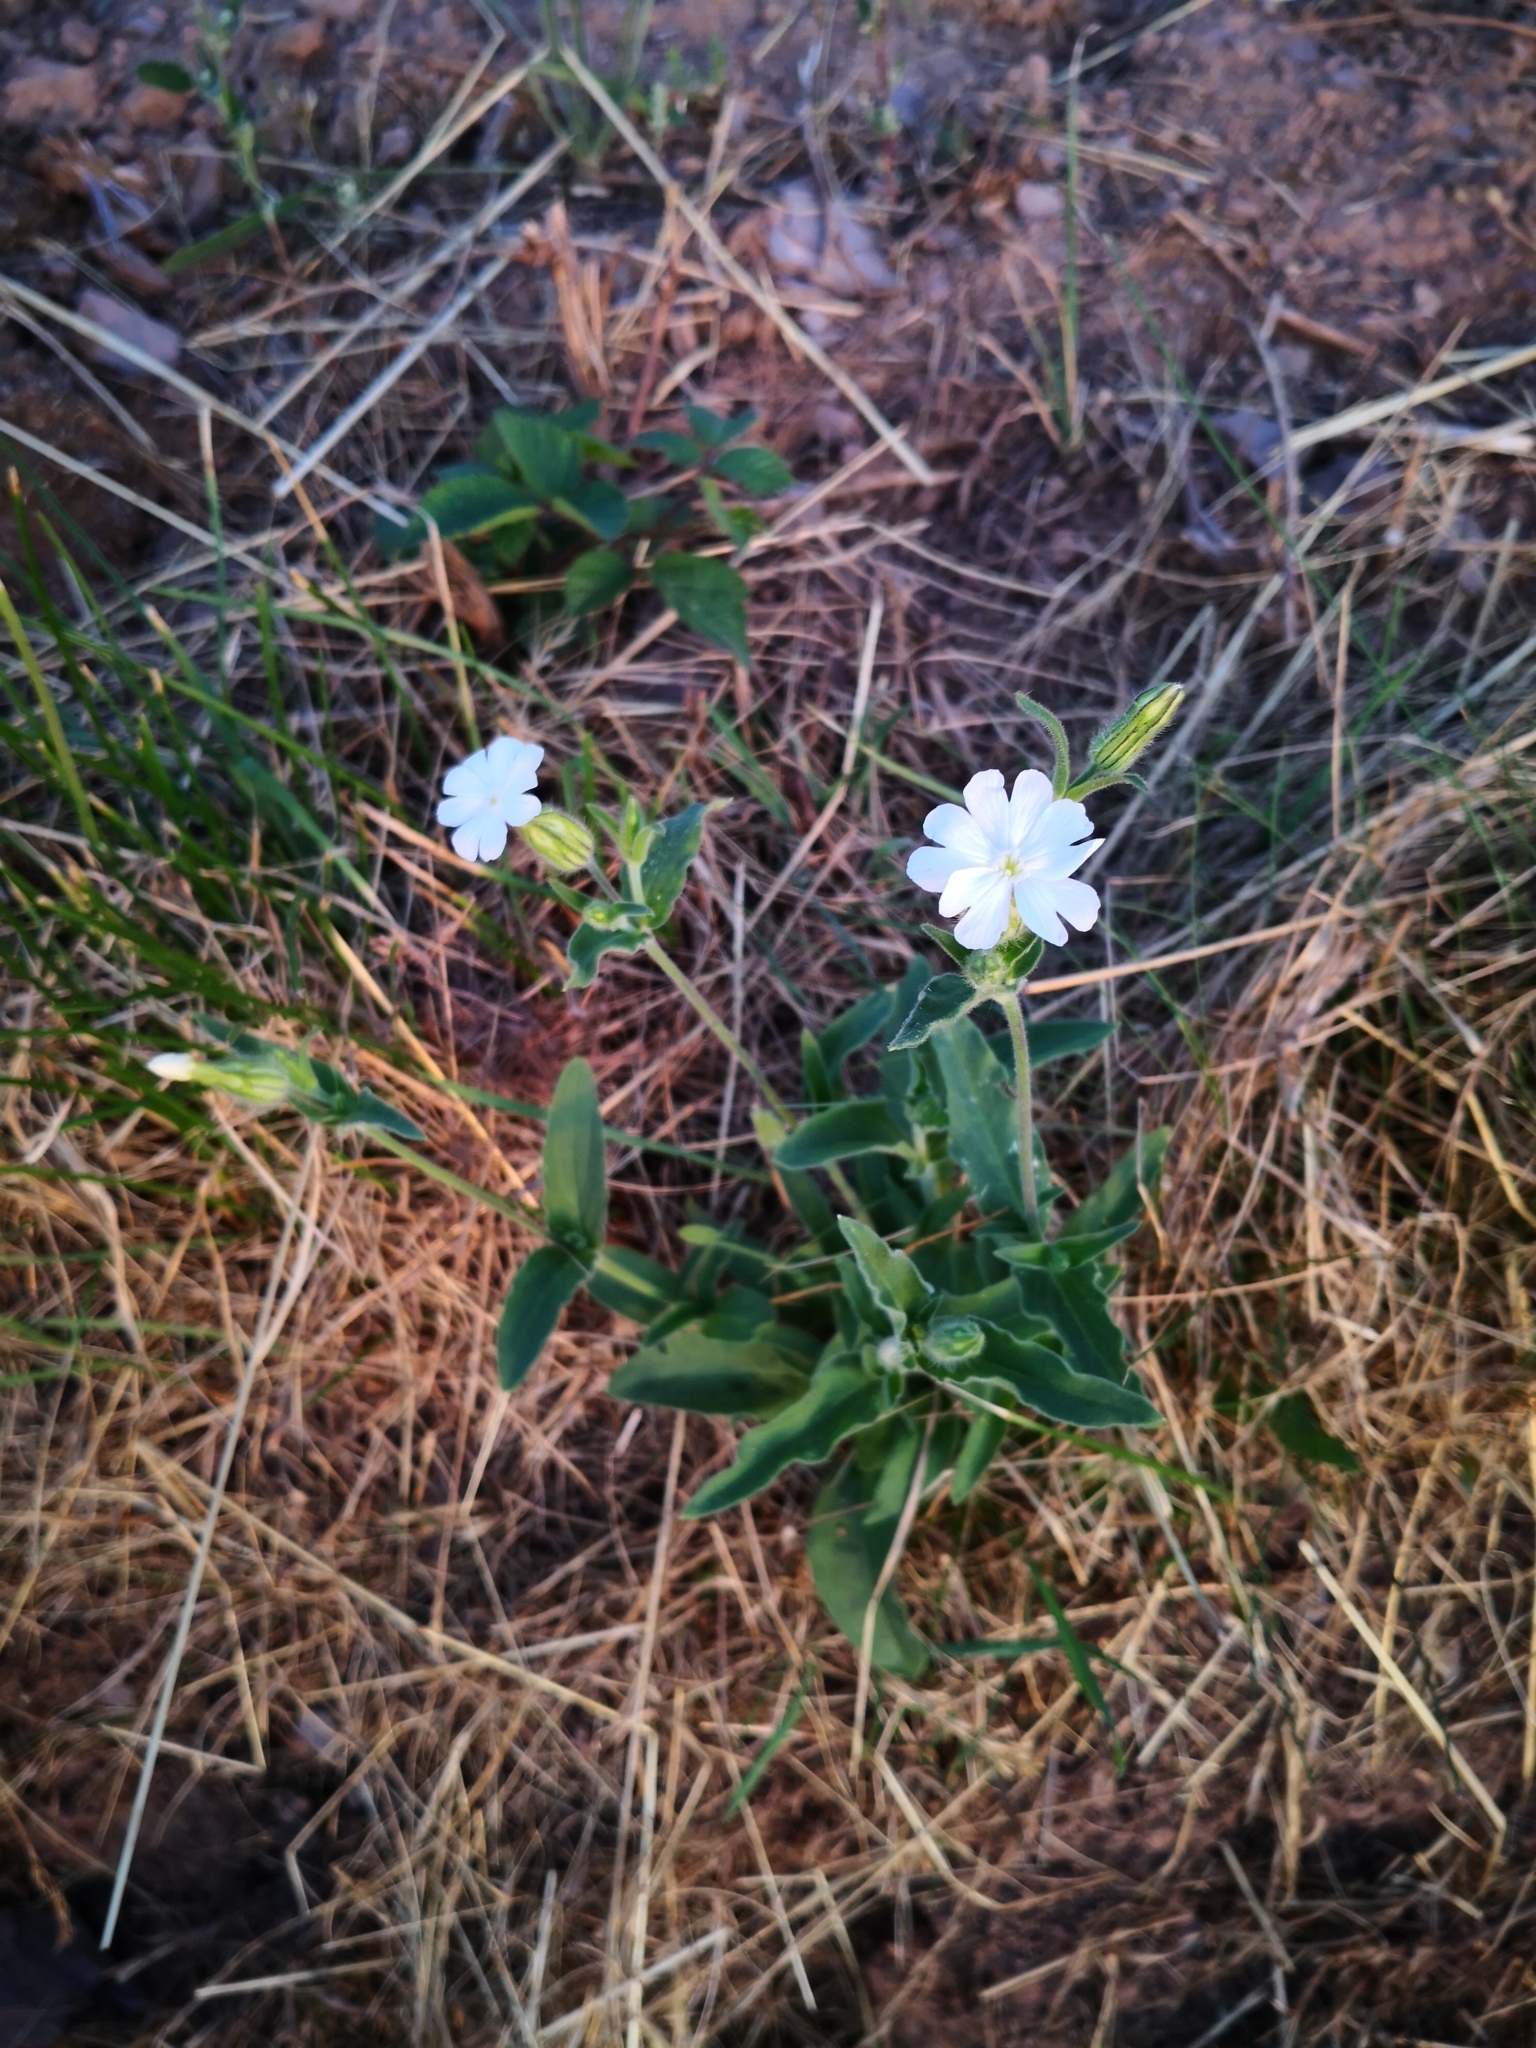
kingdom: Plantae
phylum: Tracheophyta
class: Magnoliopsida
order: Caryophyllales
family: Caryophyllaceae
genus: Silene
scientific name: Silene latifolia
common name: White campion
